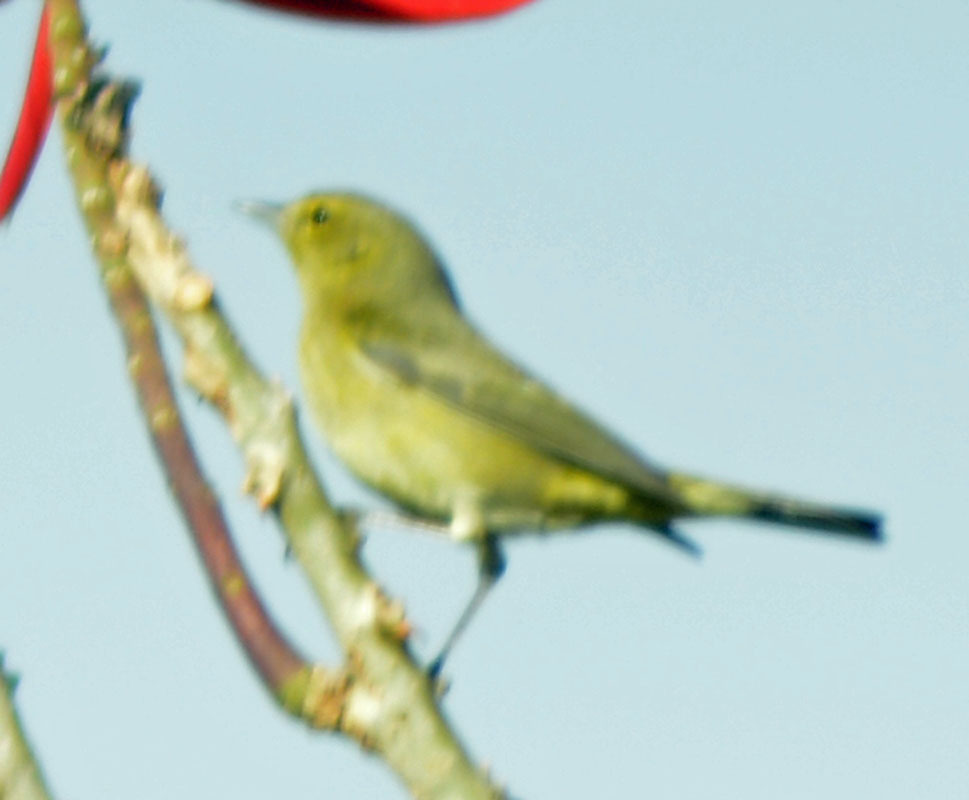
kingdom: Animalia
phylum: Chordata
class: Aves
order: Passeriformes
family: Parulidae
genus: Leiothlypis
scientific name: Leiothlypis celata
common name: Orange-crowned warbler
